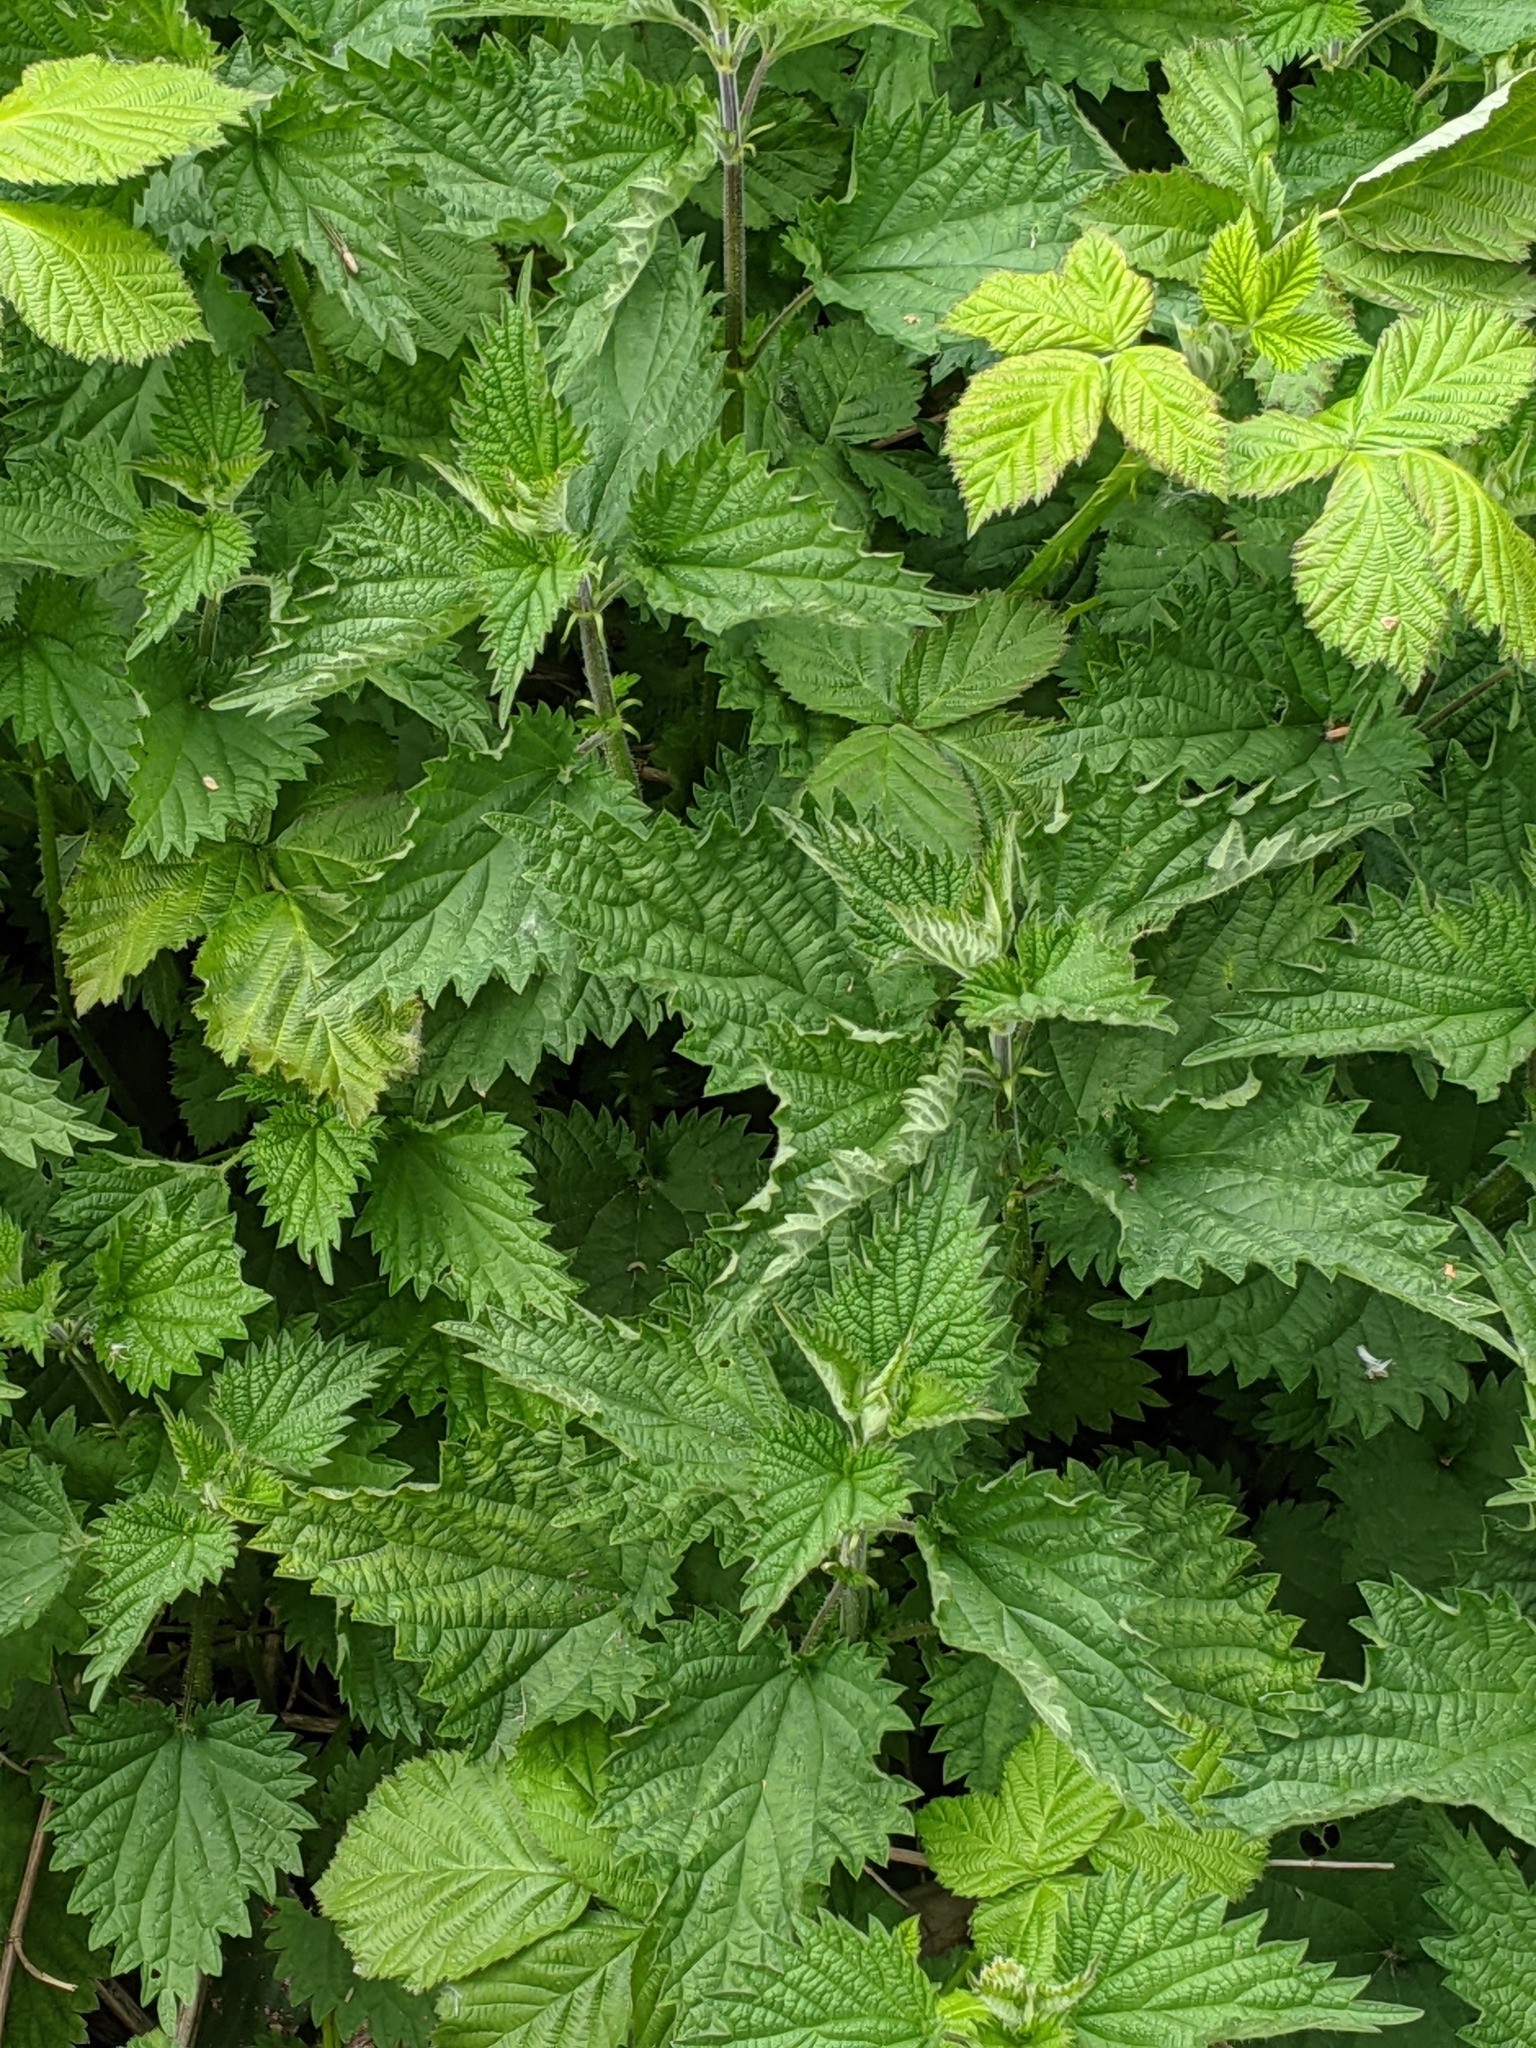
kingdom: Plantae
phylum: Tracheophyta
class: Magnoliopsida
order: Rosales
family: Urticaceae
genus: Urtica
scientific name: Urtica dioica
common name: Common nettle
